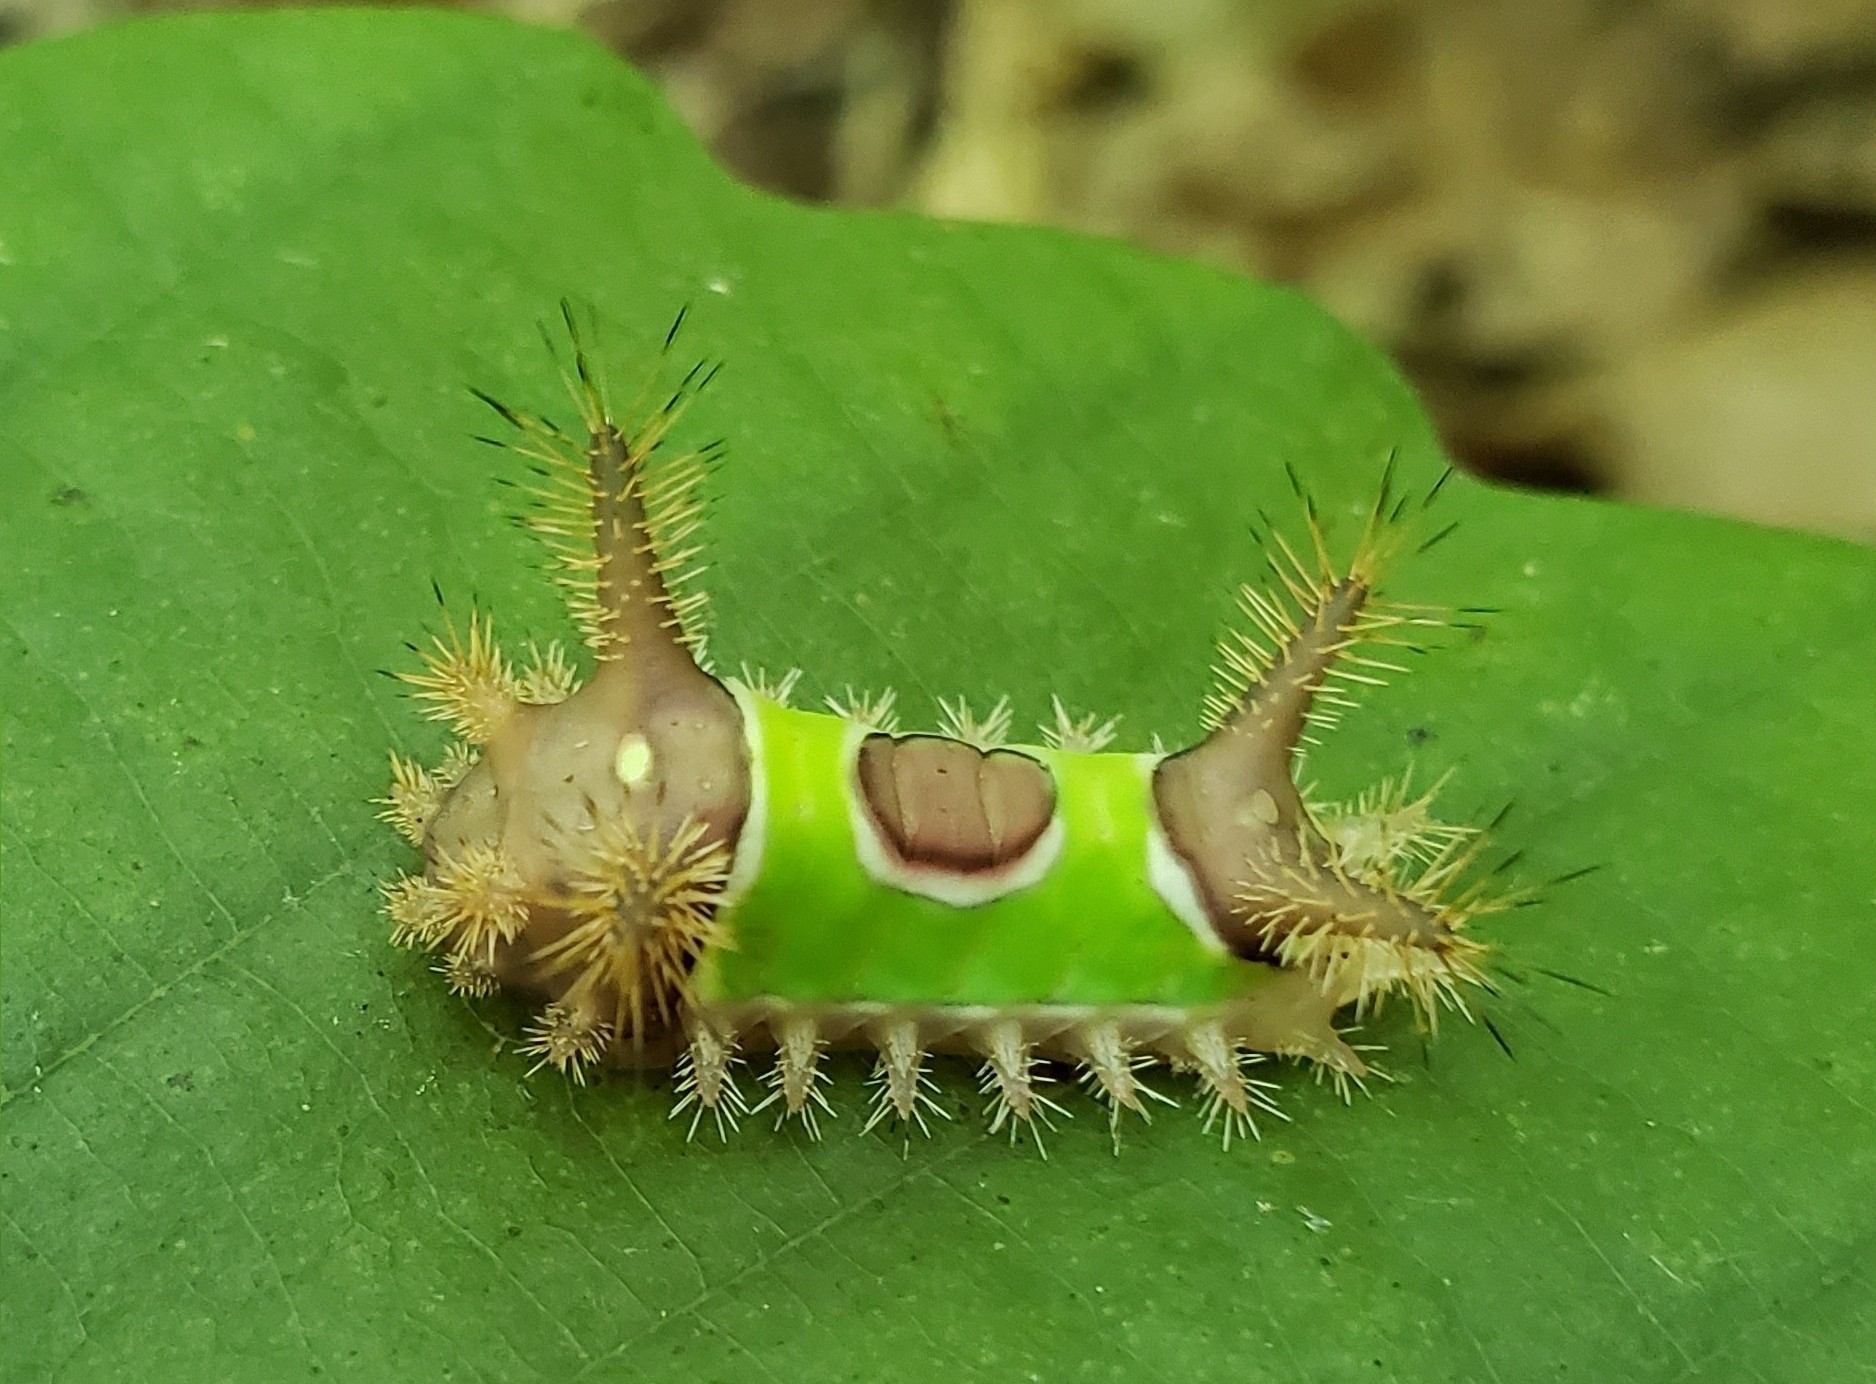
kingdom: Animalia
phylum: Arthropoda
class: Insecta
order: Lepidoptera
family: Limacodidae
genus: Acharia
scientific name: Acharia stimulea
